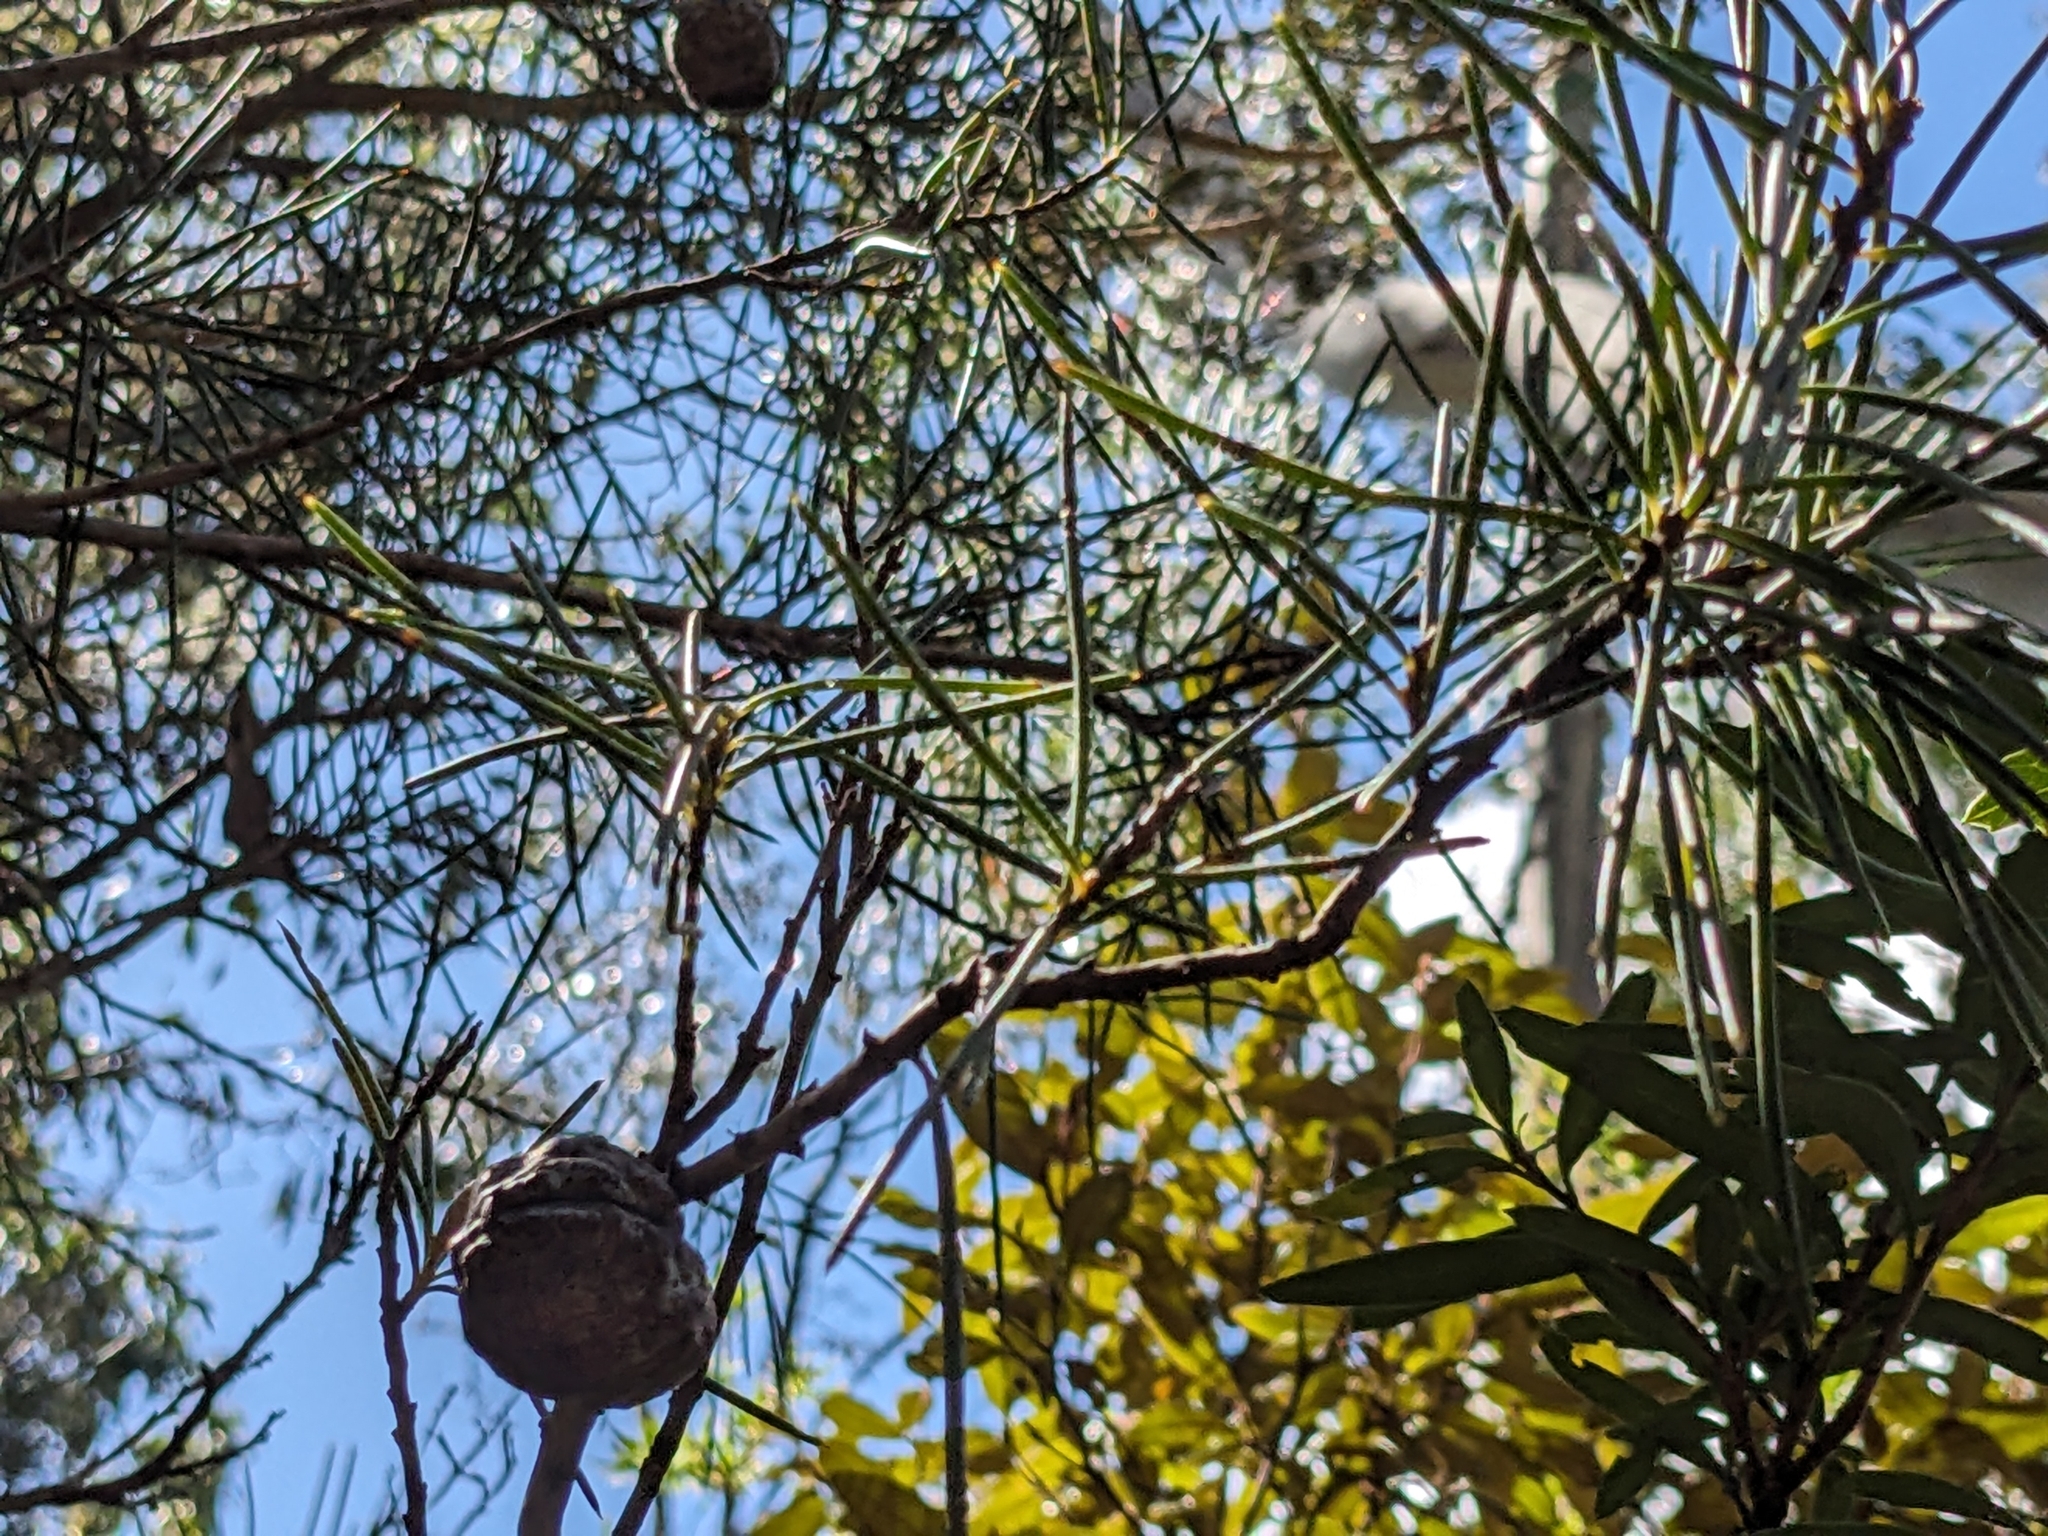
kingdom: Plantae
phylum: Tracheophyta
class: Magnoliopsida
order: Proteales
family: Proteaceae
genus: Hakea
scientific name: Hakea lissosperma
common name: Mountain needlewood
